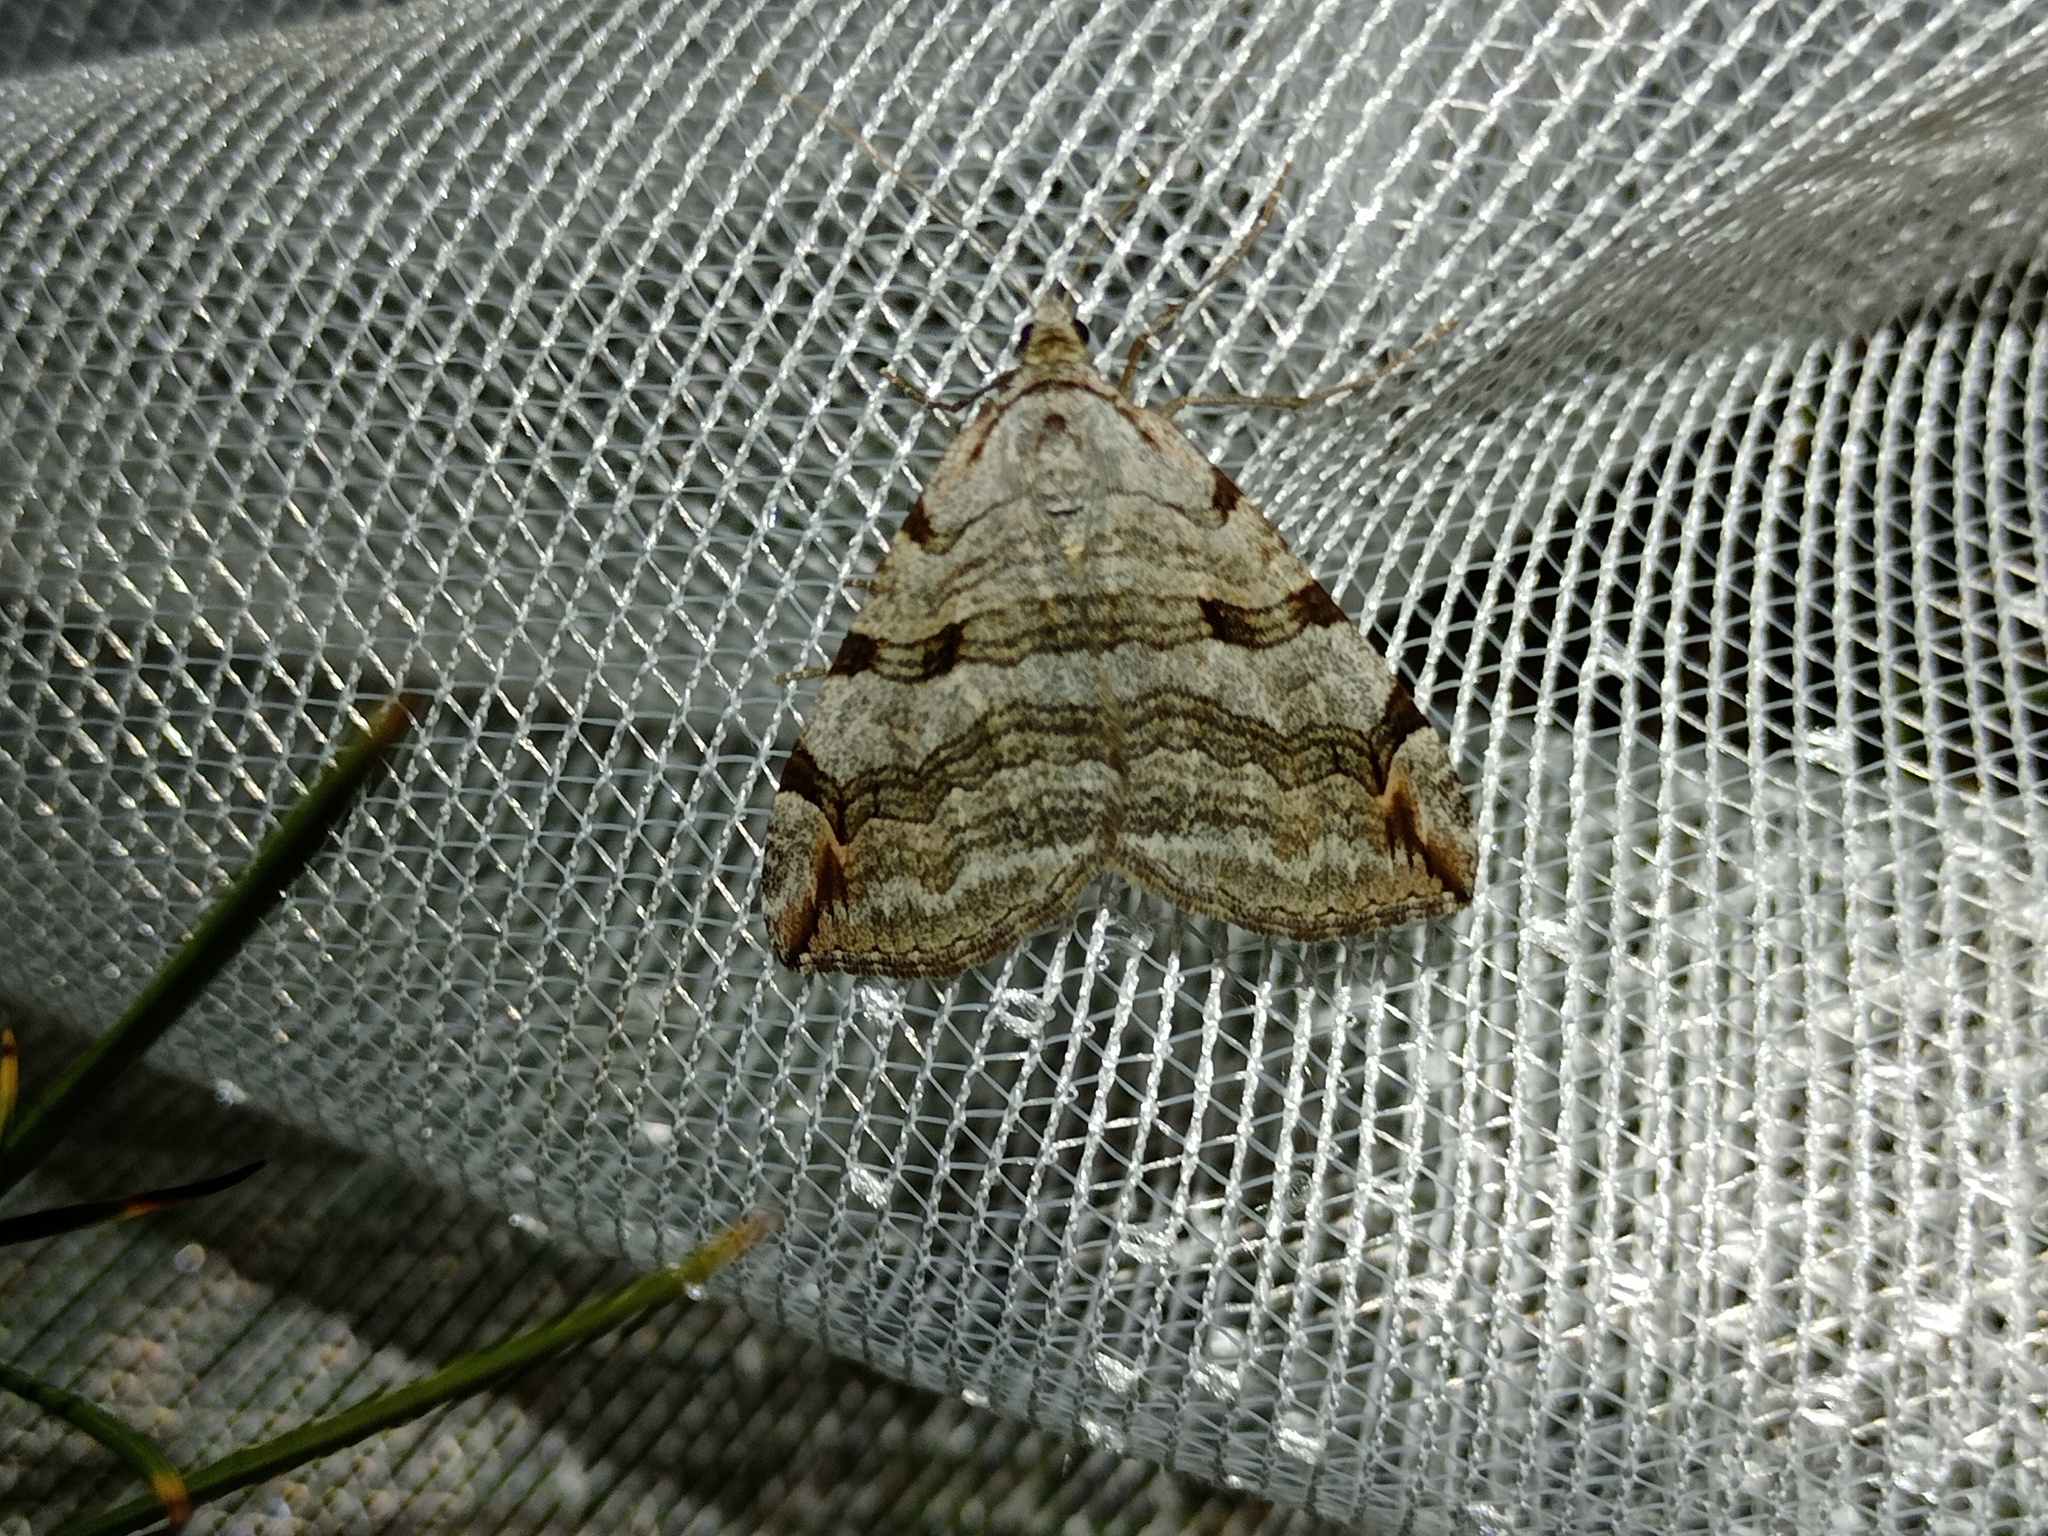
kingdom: Animalia
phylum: Arthropoda
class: Insecta
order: Lepidoptera
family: Geometridae
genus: Aplocera
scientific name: Aplocera plagiata
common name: Treble-bar
